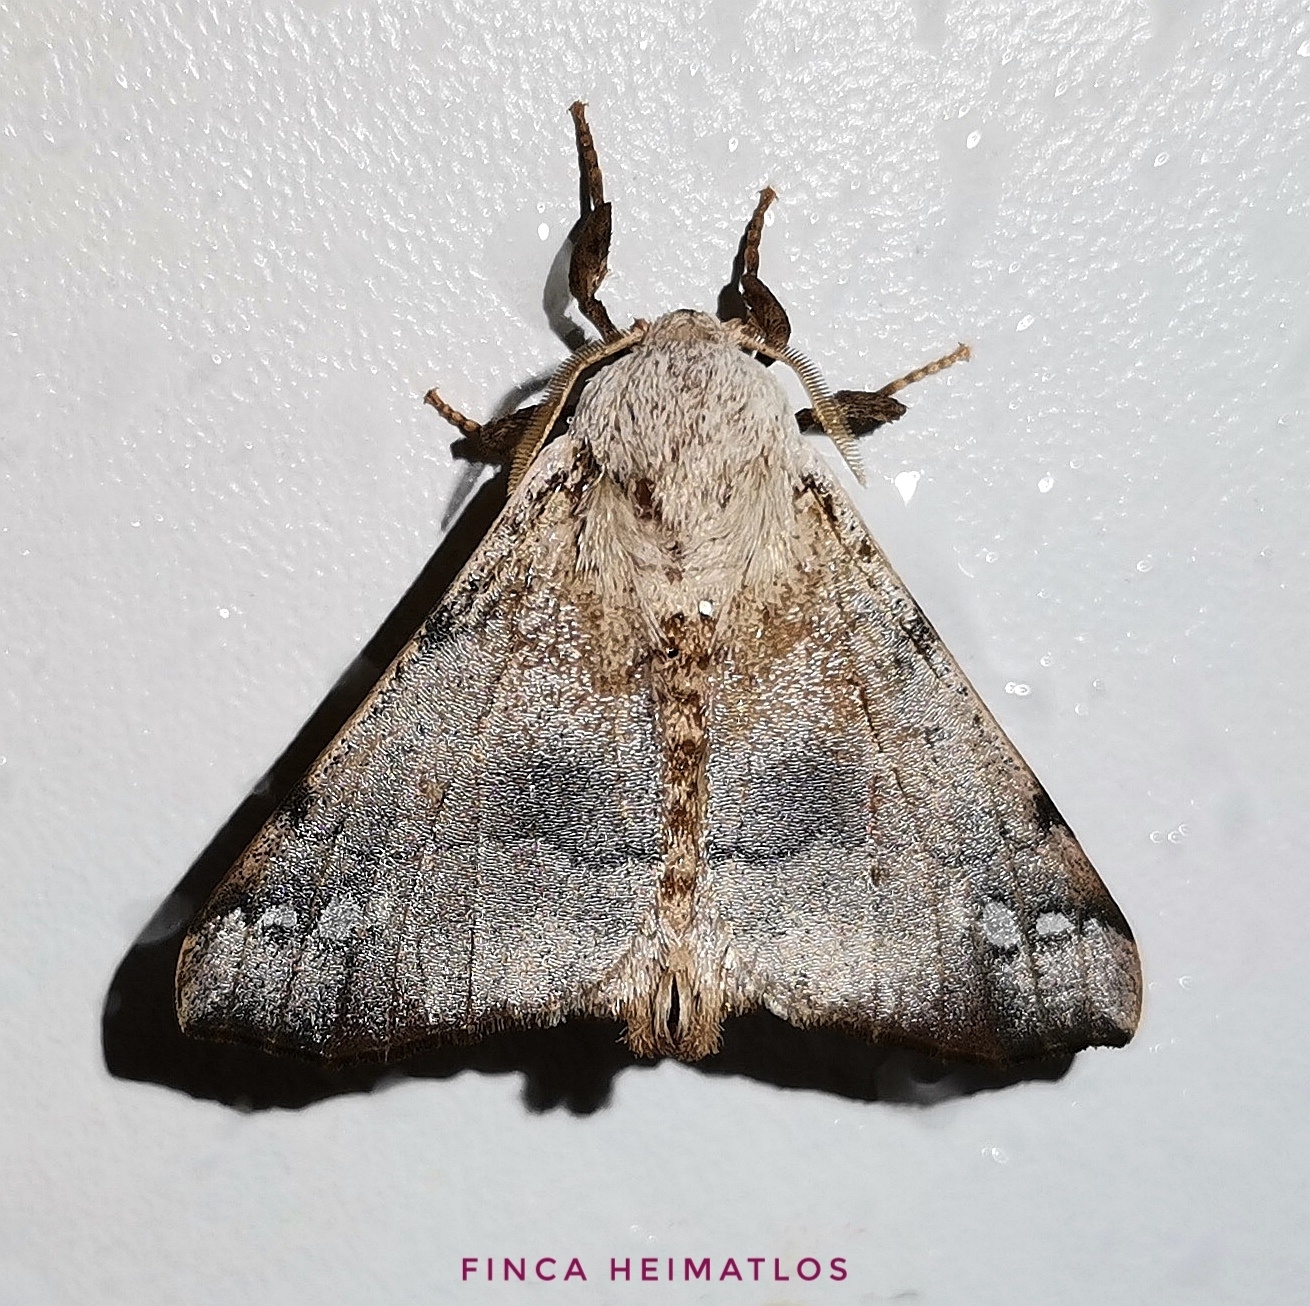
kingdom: Animalia
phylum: Arthropoda
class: Insecta
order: Lepidoptera
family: Apatelodidae
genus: Hygrochroa
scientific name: Hygrochroa Apatelodes anna
